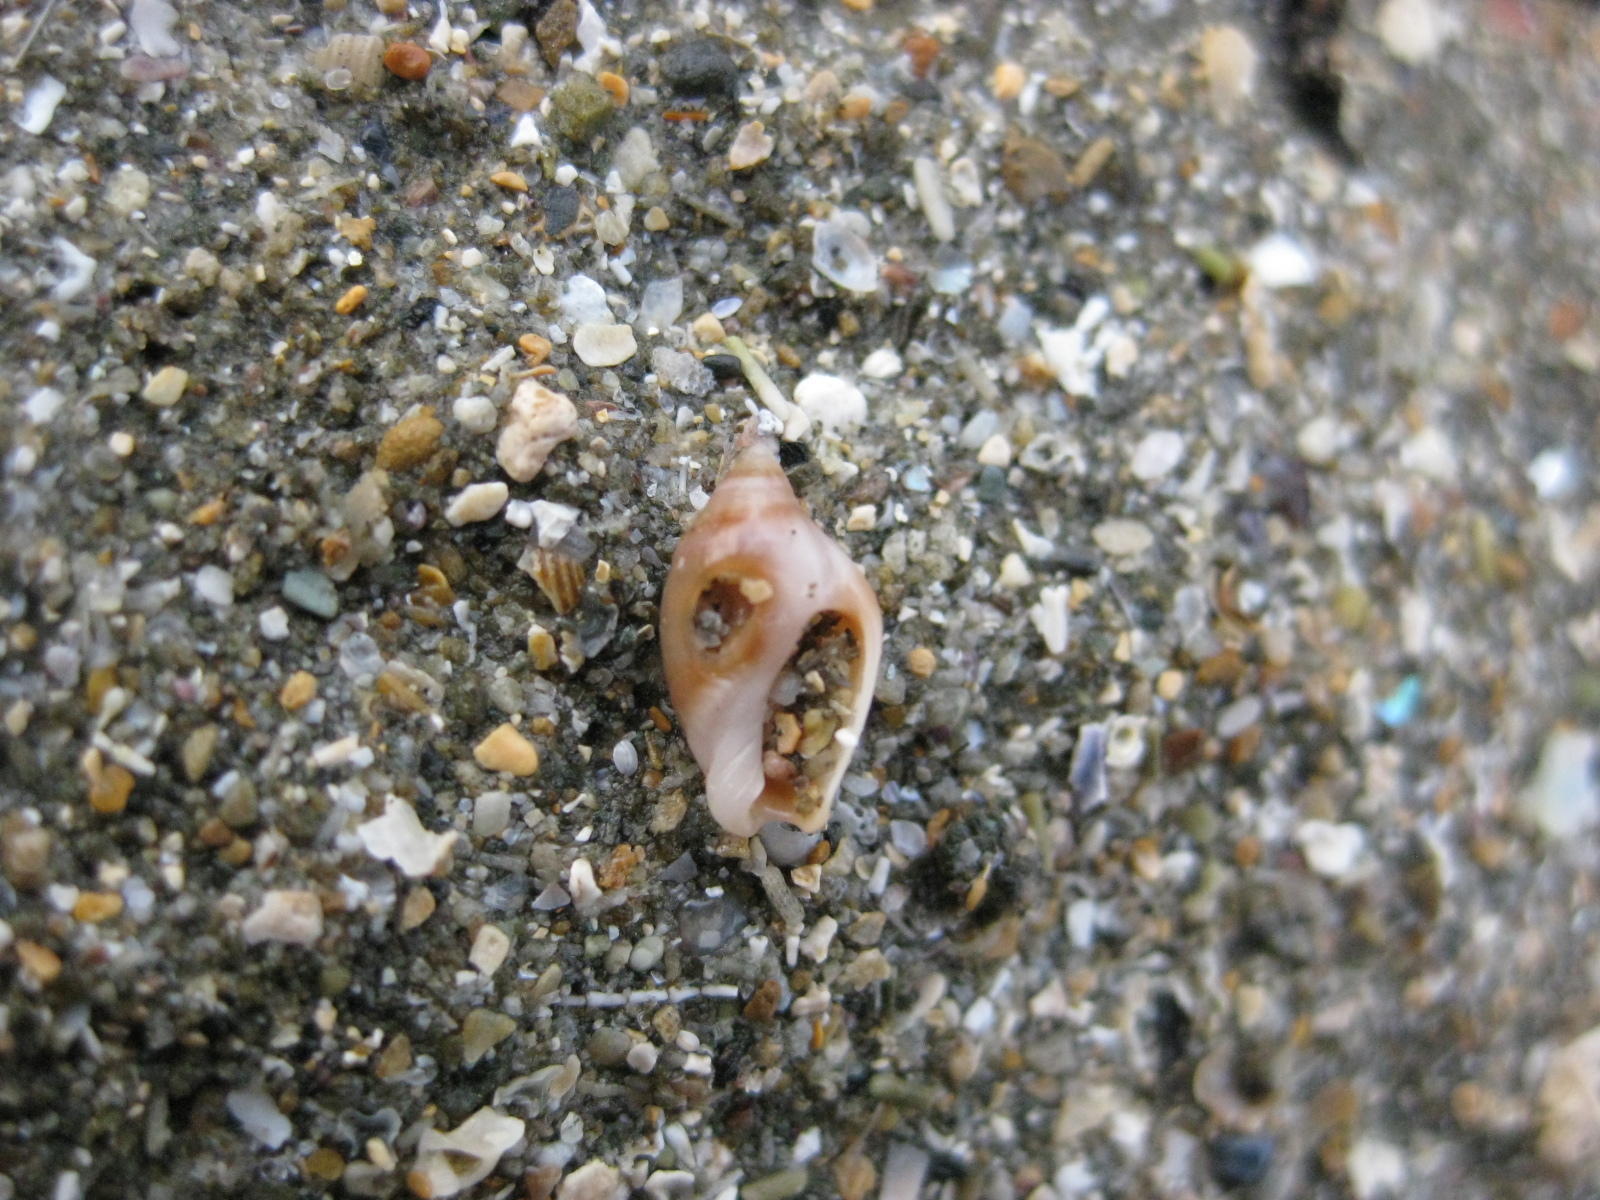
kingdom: Animalia
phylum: Mollusca
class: Gastropoda
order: Neogastropoda
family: Ancillariidae
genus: Amalda
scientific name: Amalda depressa
